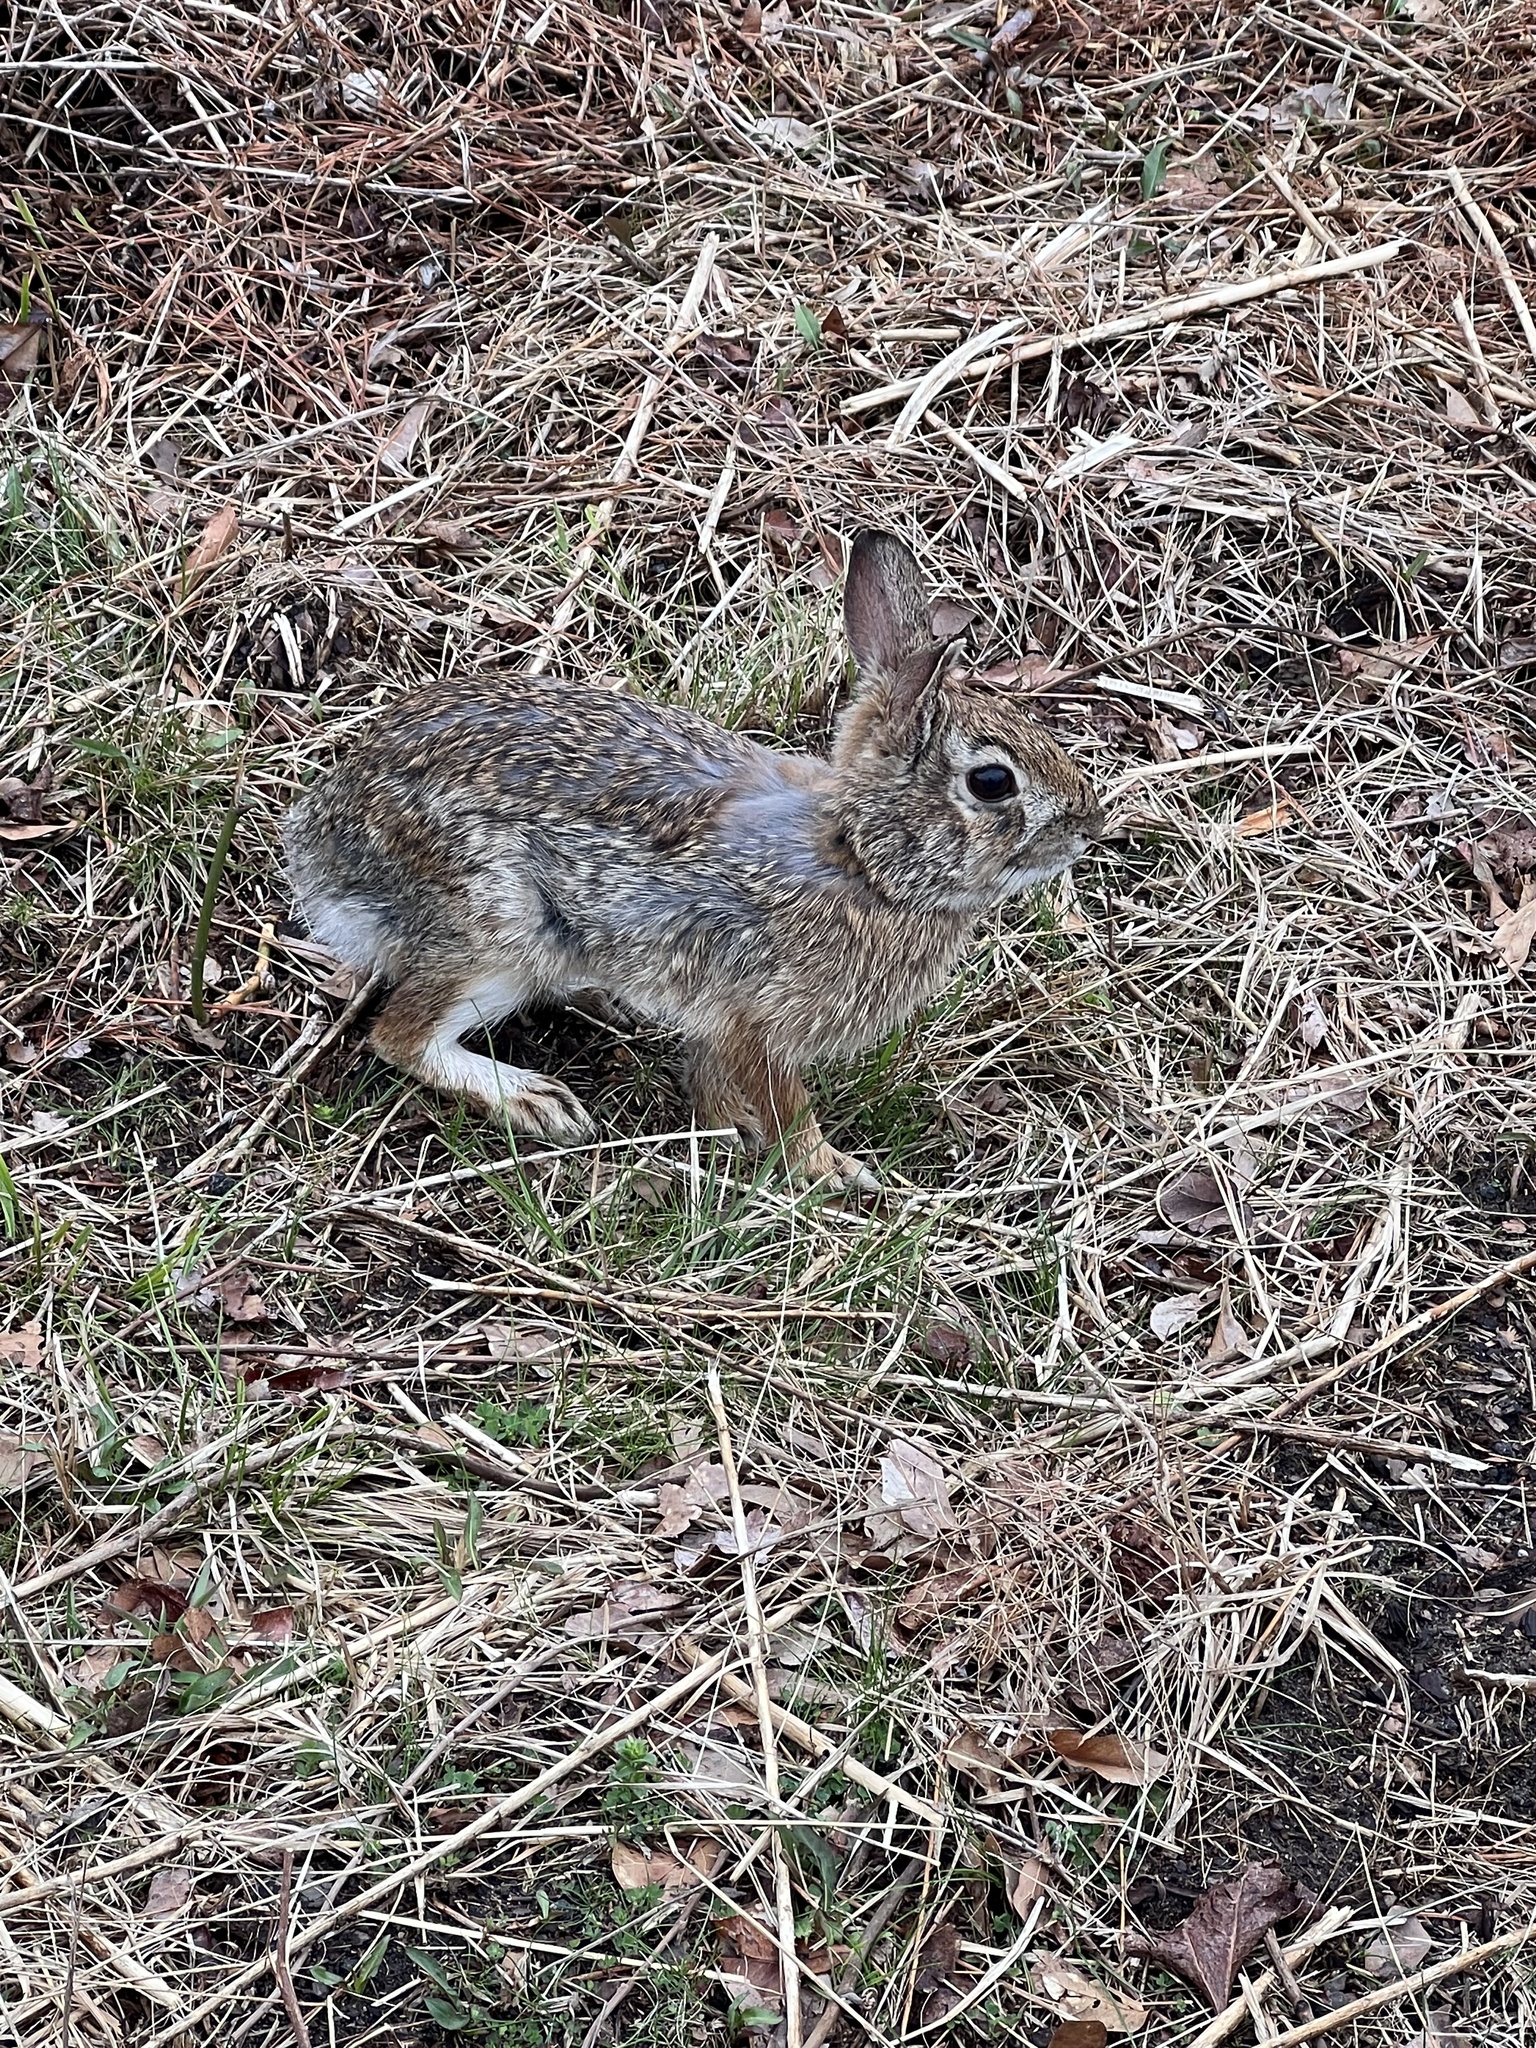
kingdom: Animalia
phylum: Chordata
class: Mammalia
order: Lagomorpha
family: Leporidae
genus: Sylvilagus
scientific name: Sylvilagus floridanus
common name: Eastern cottontail
